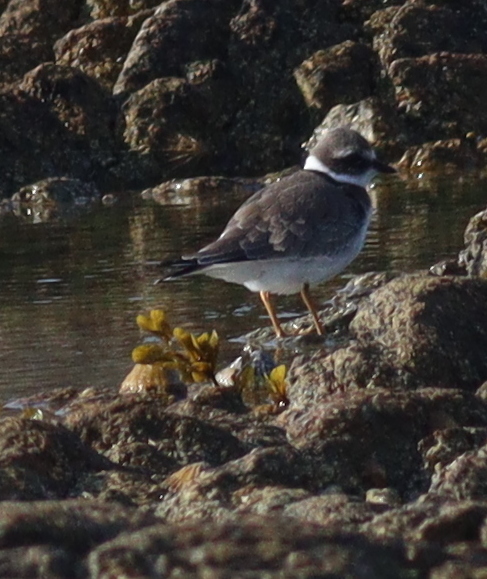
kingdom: Animalia
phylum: Chordata
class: Aves
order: Charadriiformes
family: Charadriidae
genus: Charadrius
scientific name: Charadrius hiaticula
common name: Common ringed plover
